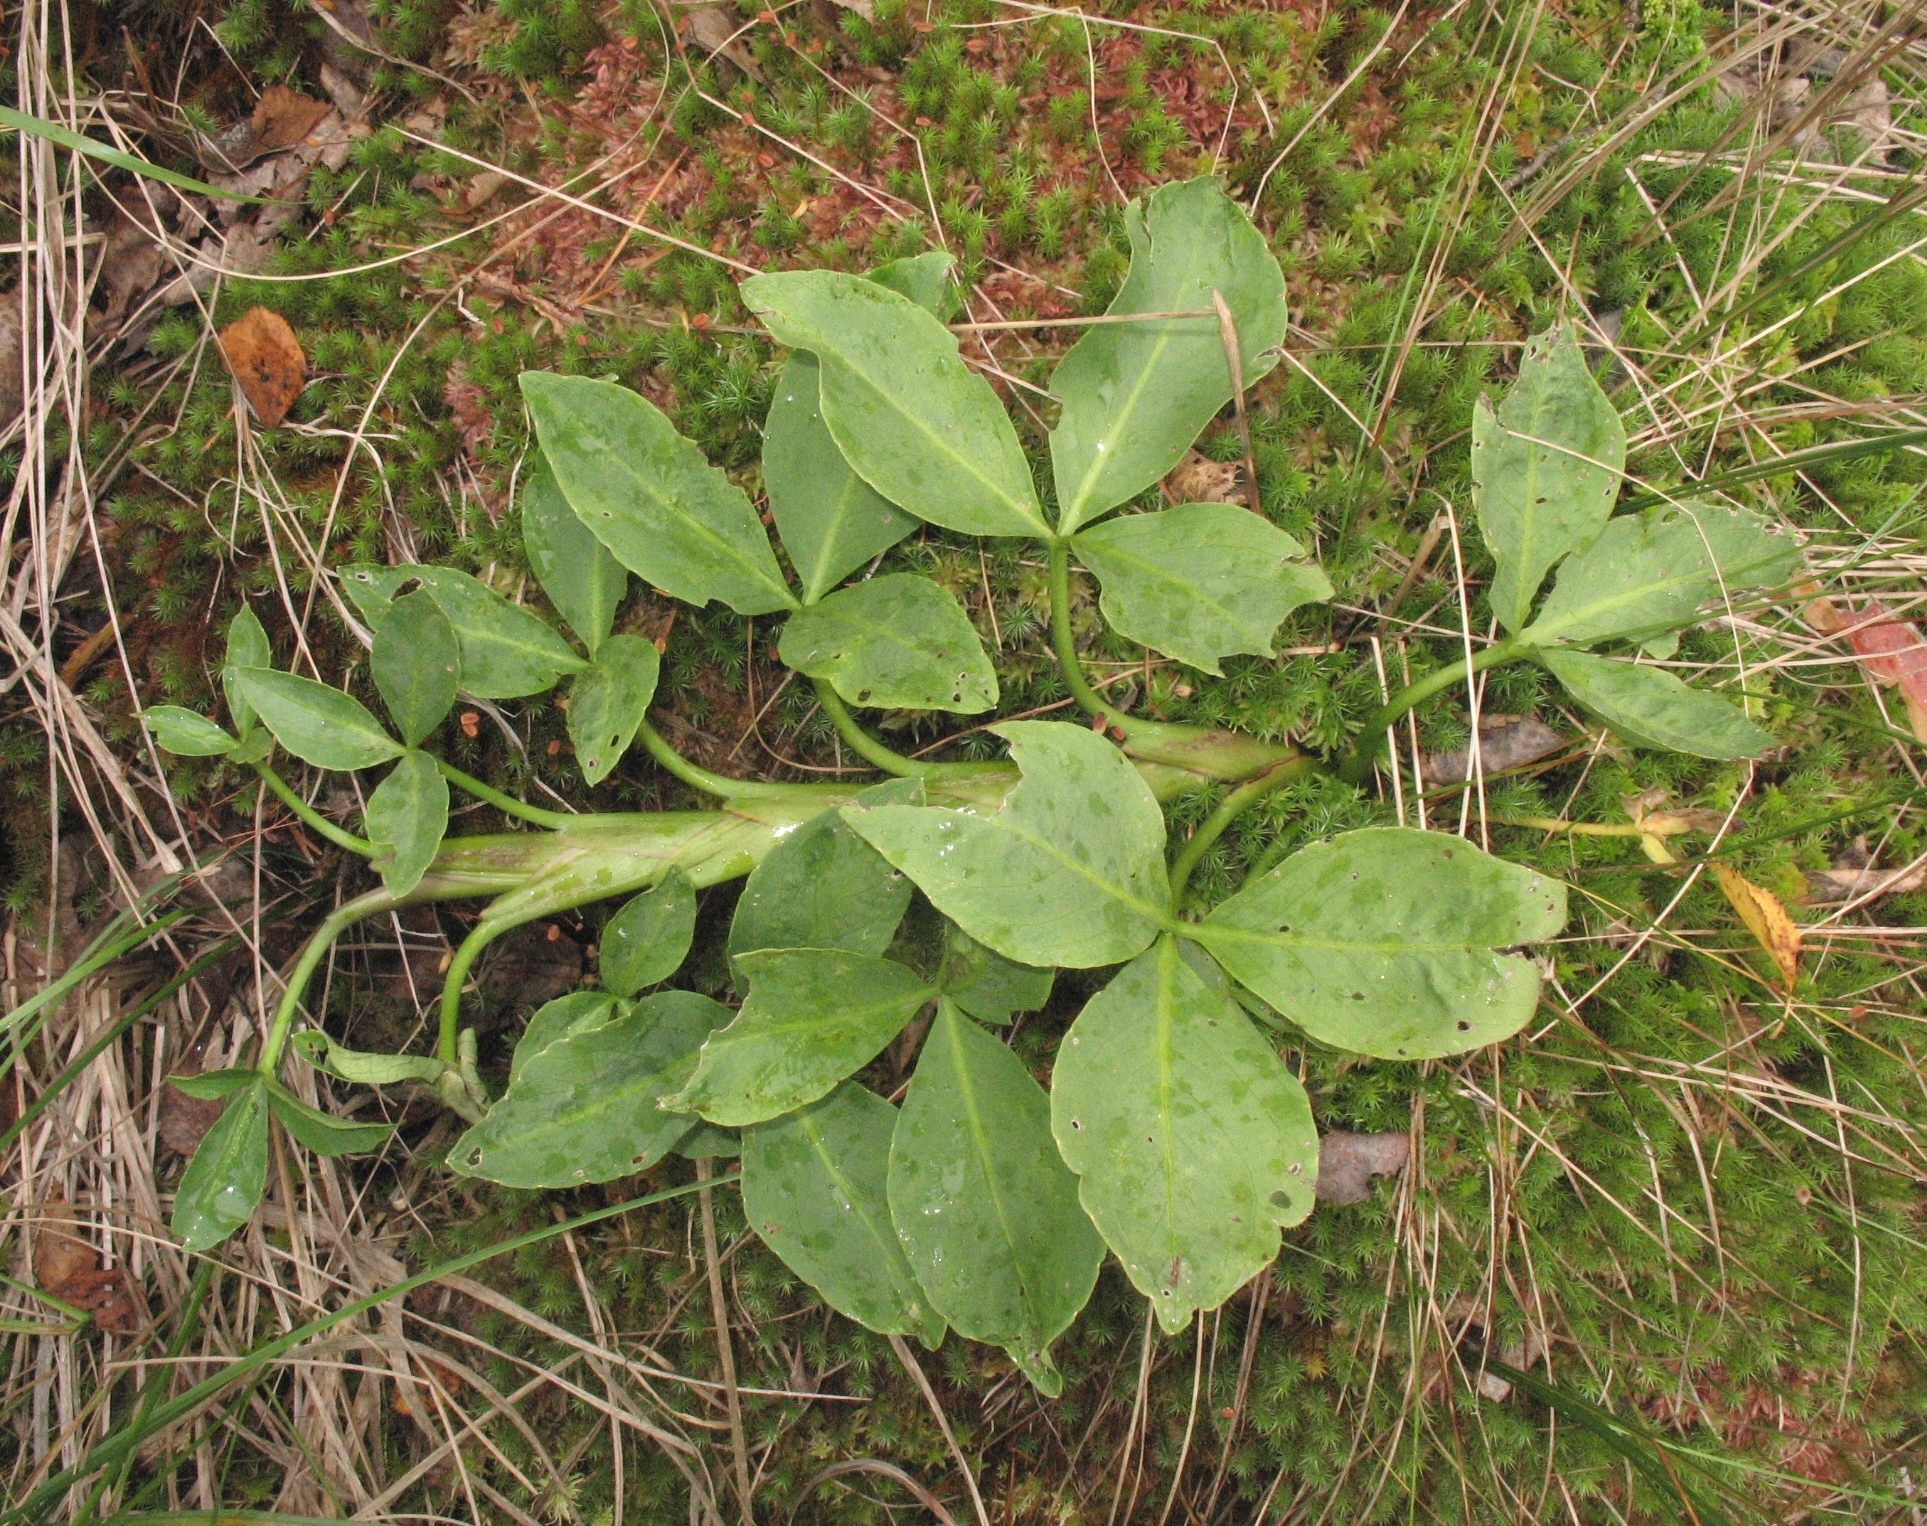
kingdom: Plantae
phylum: Tracheophyta
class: Magnoliopsida
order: Asterales
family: Menyanthaceae
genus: Menyanthes
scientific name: Menyanthes trifoliata
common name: Bogbean
